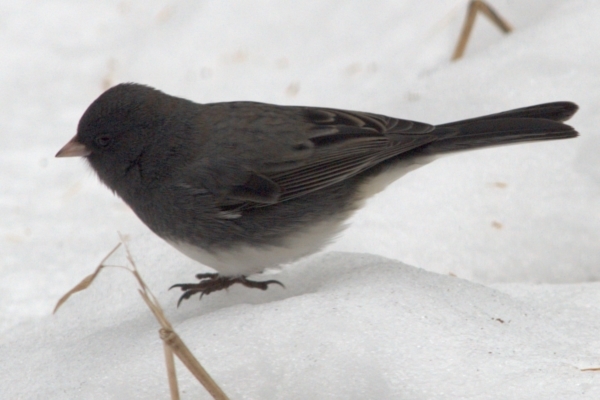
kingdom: Animalia
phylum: Chordata
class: Aves
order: Passeriformes
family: Passerellidae
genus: Junco
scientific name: Junco hyemalis
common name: Dark-eyed junco
